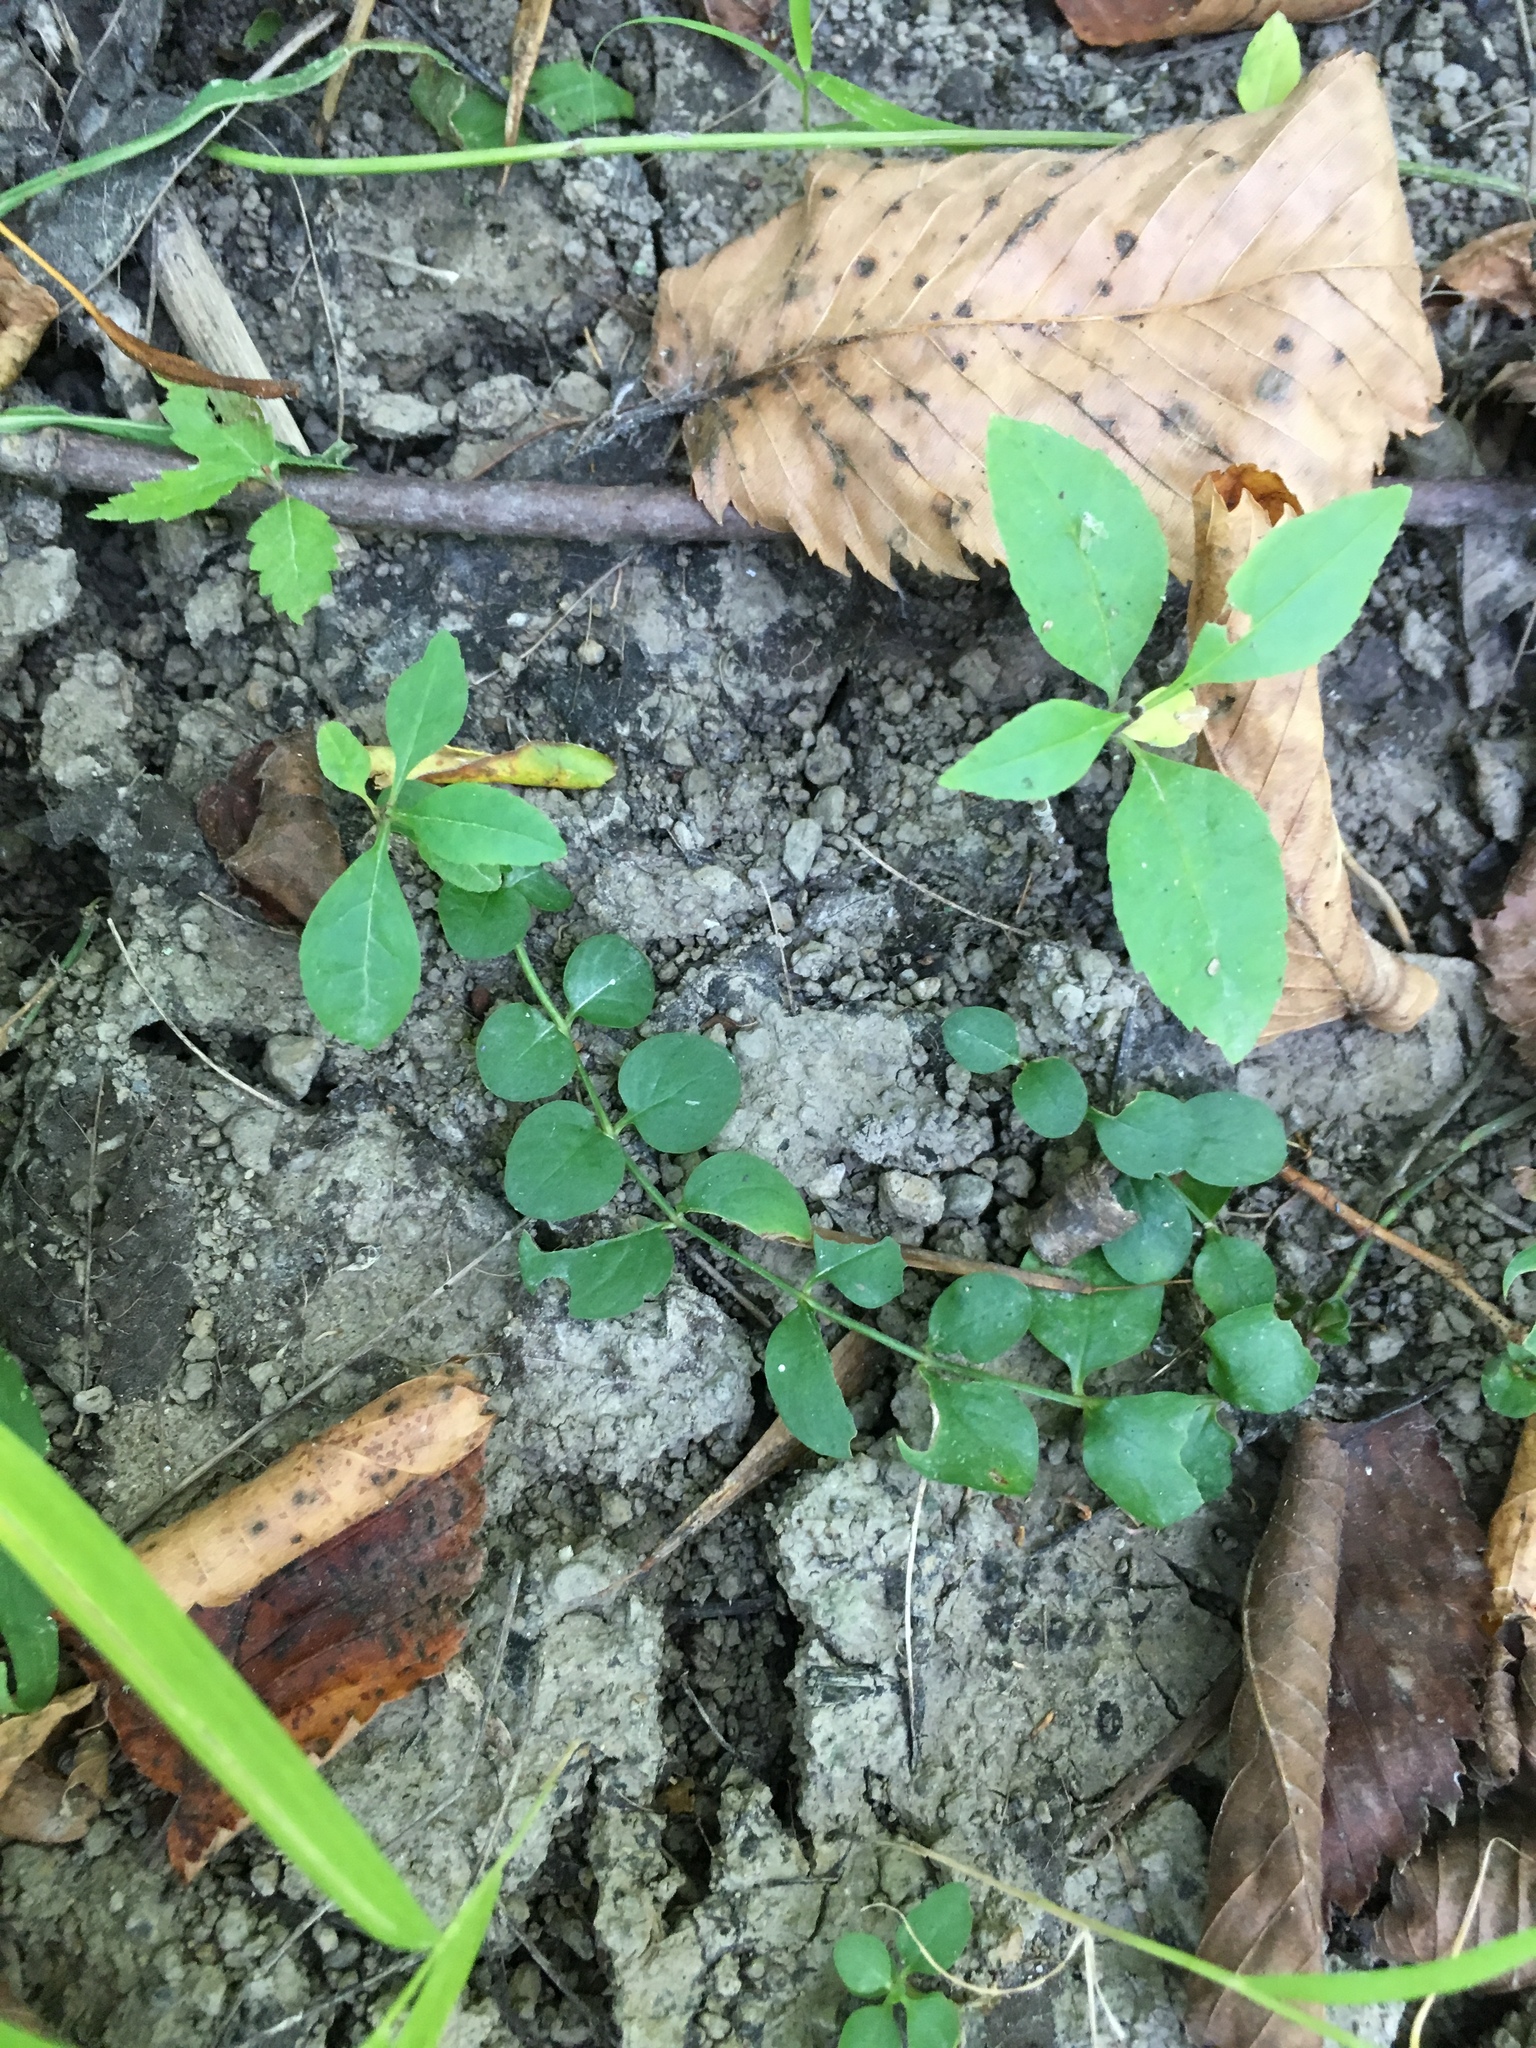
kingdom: Plantae
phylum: Tracheophyta
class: Magnoliopsida
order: Ericales
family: Primulaceae
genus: Lysimachia
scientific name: Lysimachia nummularia
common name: Moneywort
